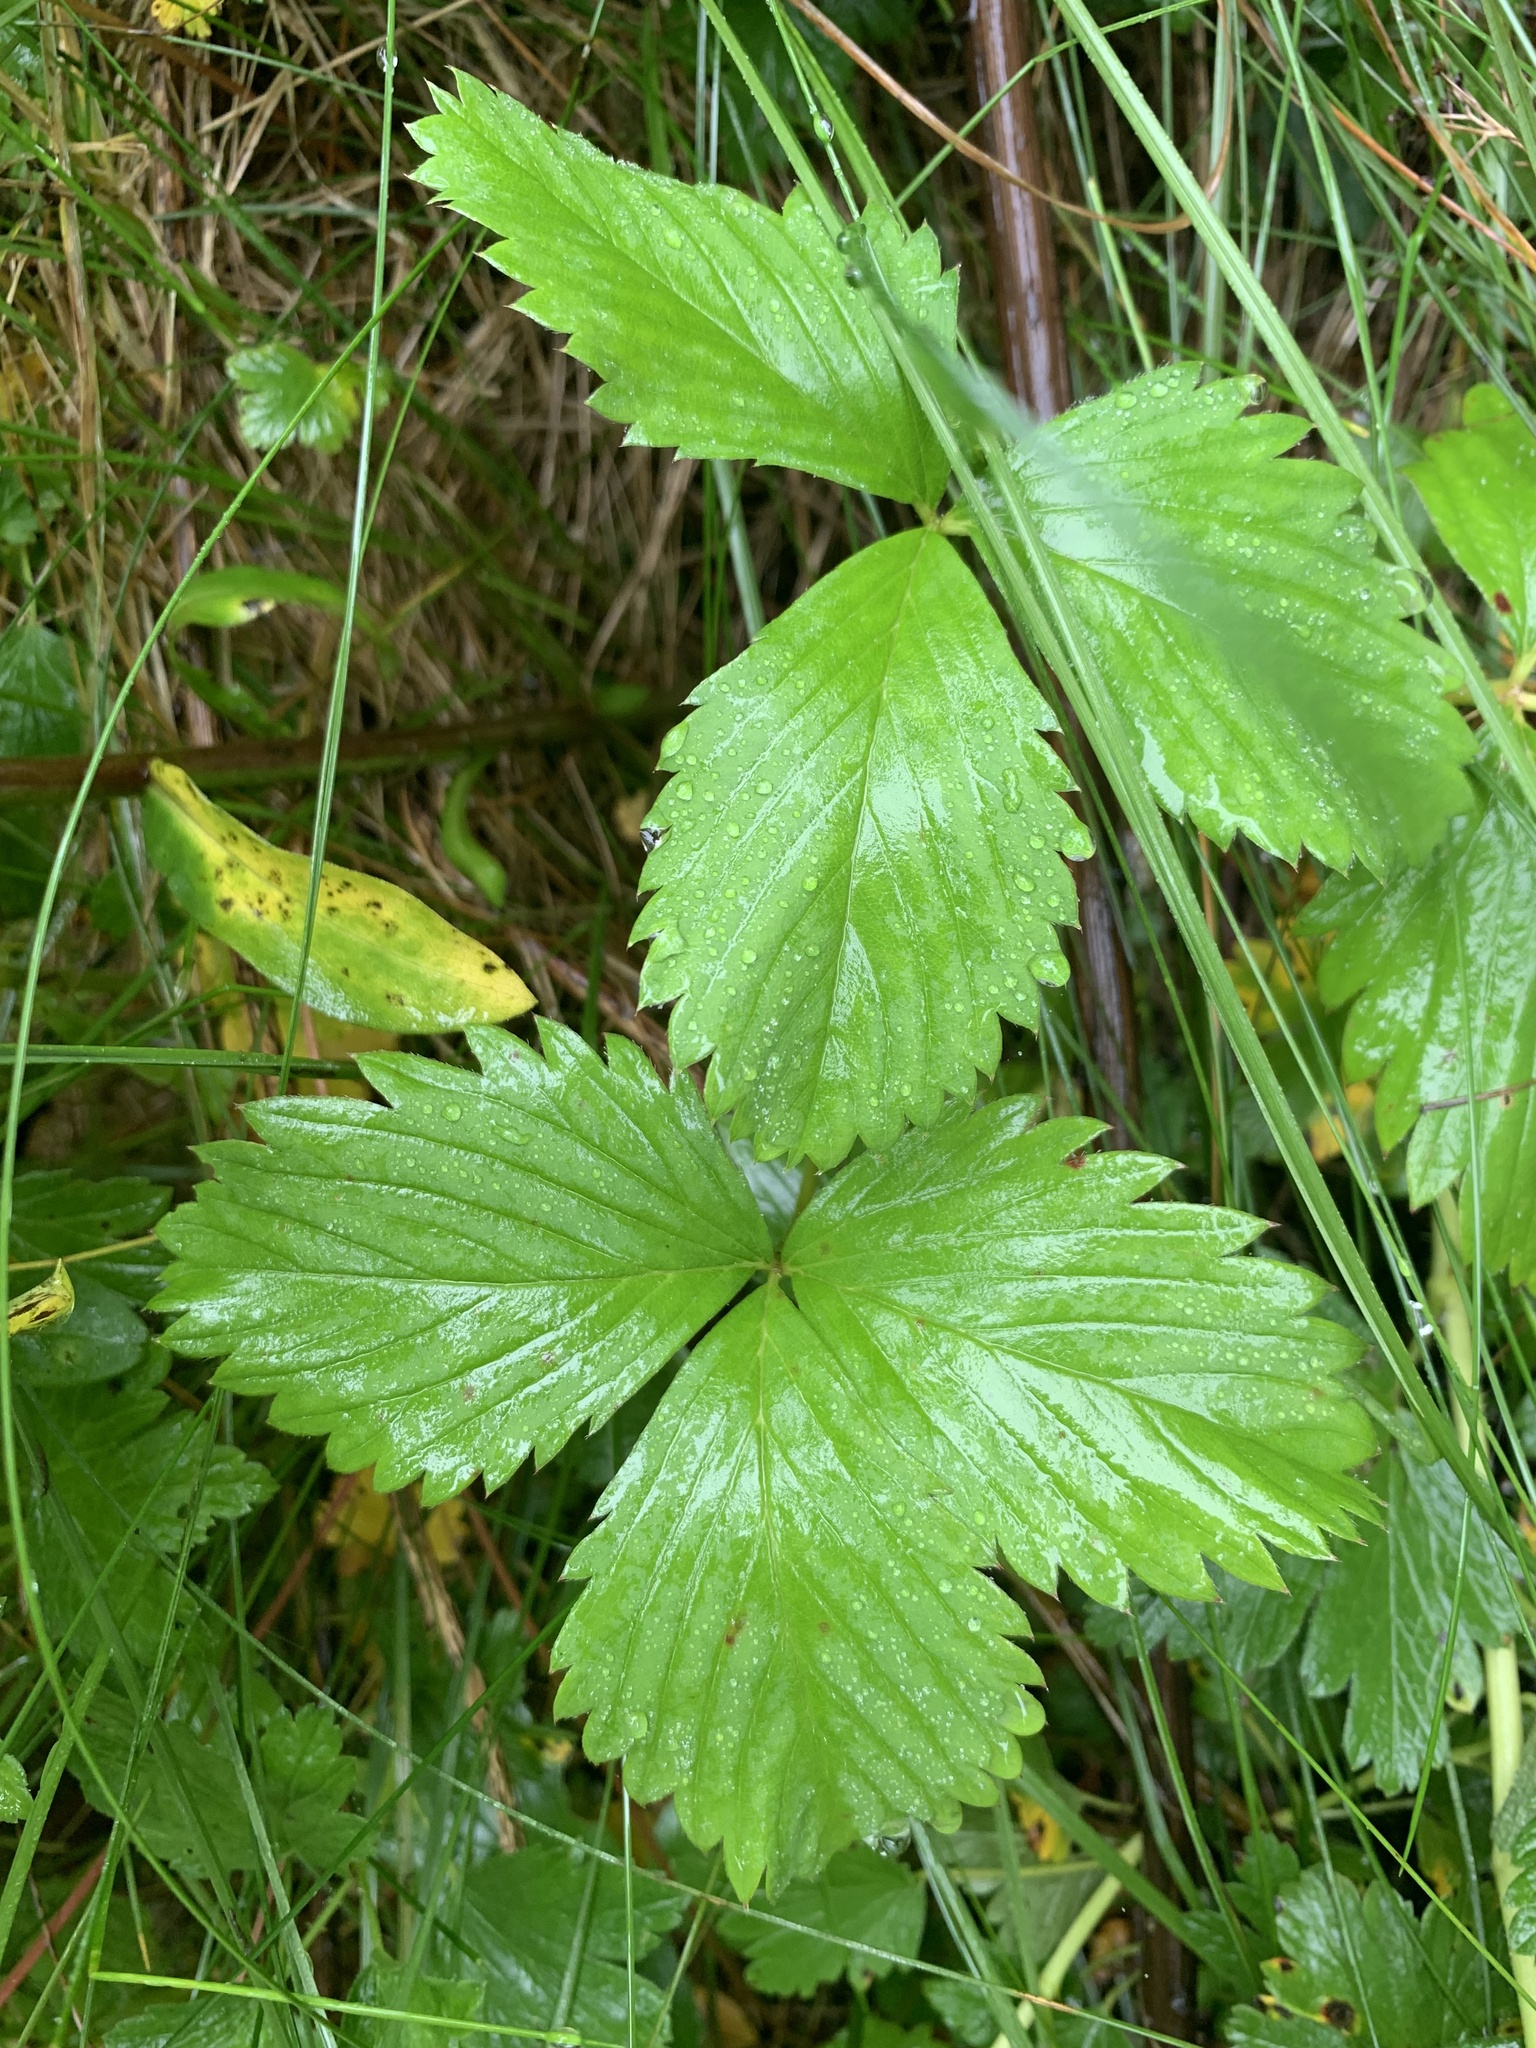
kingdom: Plantae
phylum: Tracheophyta
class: Magnoliopsida
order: Rosales
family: Rosaceae
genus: Fragaria
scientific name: Fragaria virginiana
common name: Thickleaved wild strawberry
